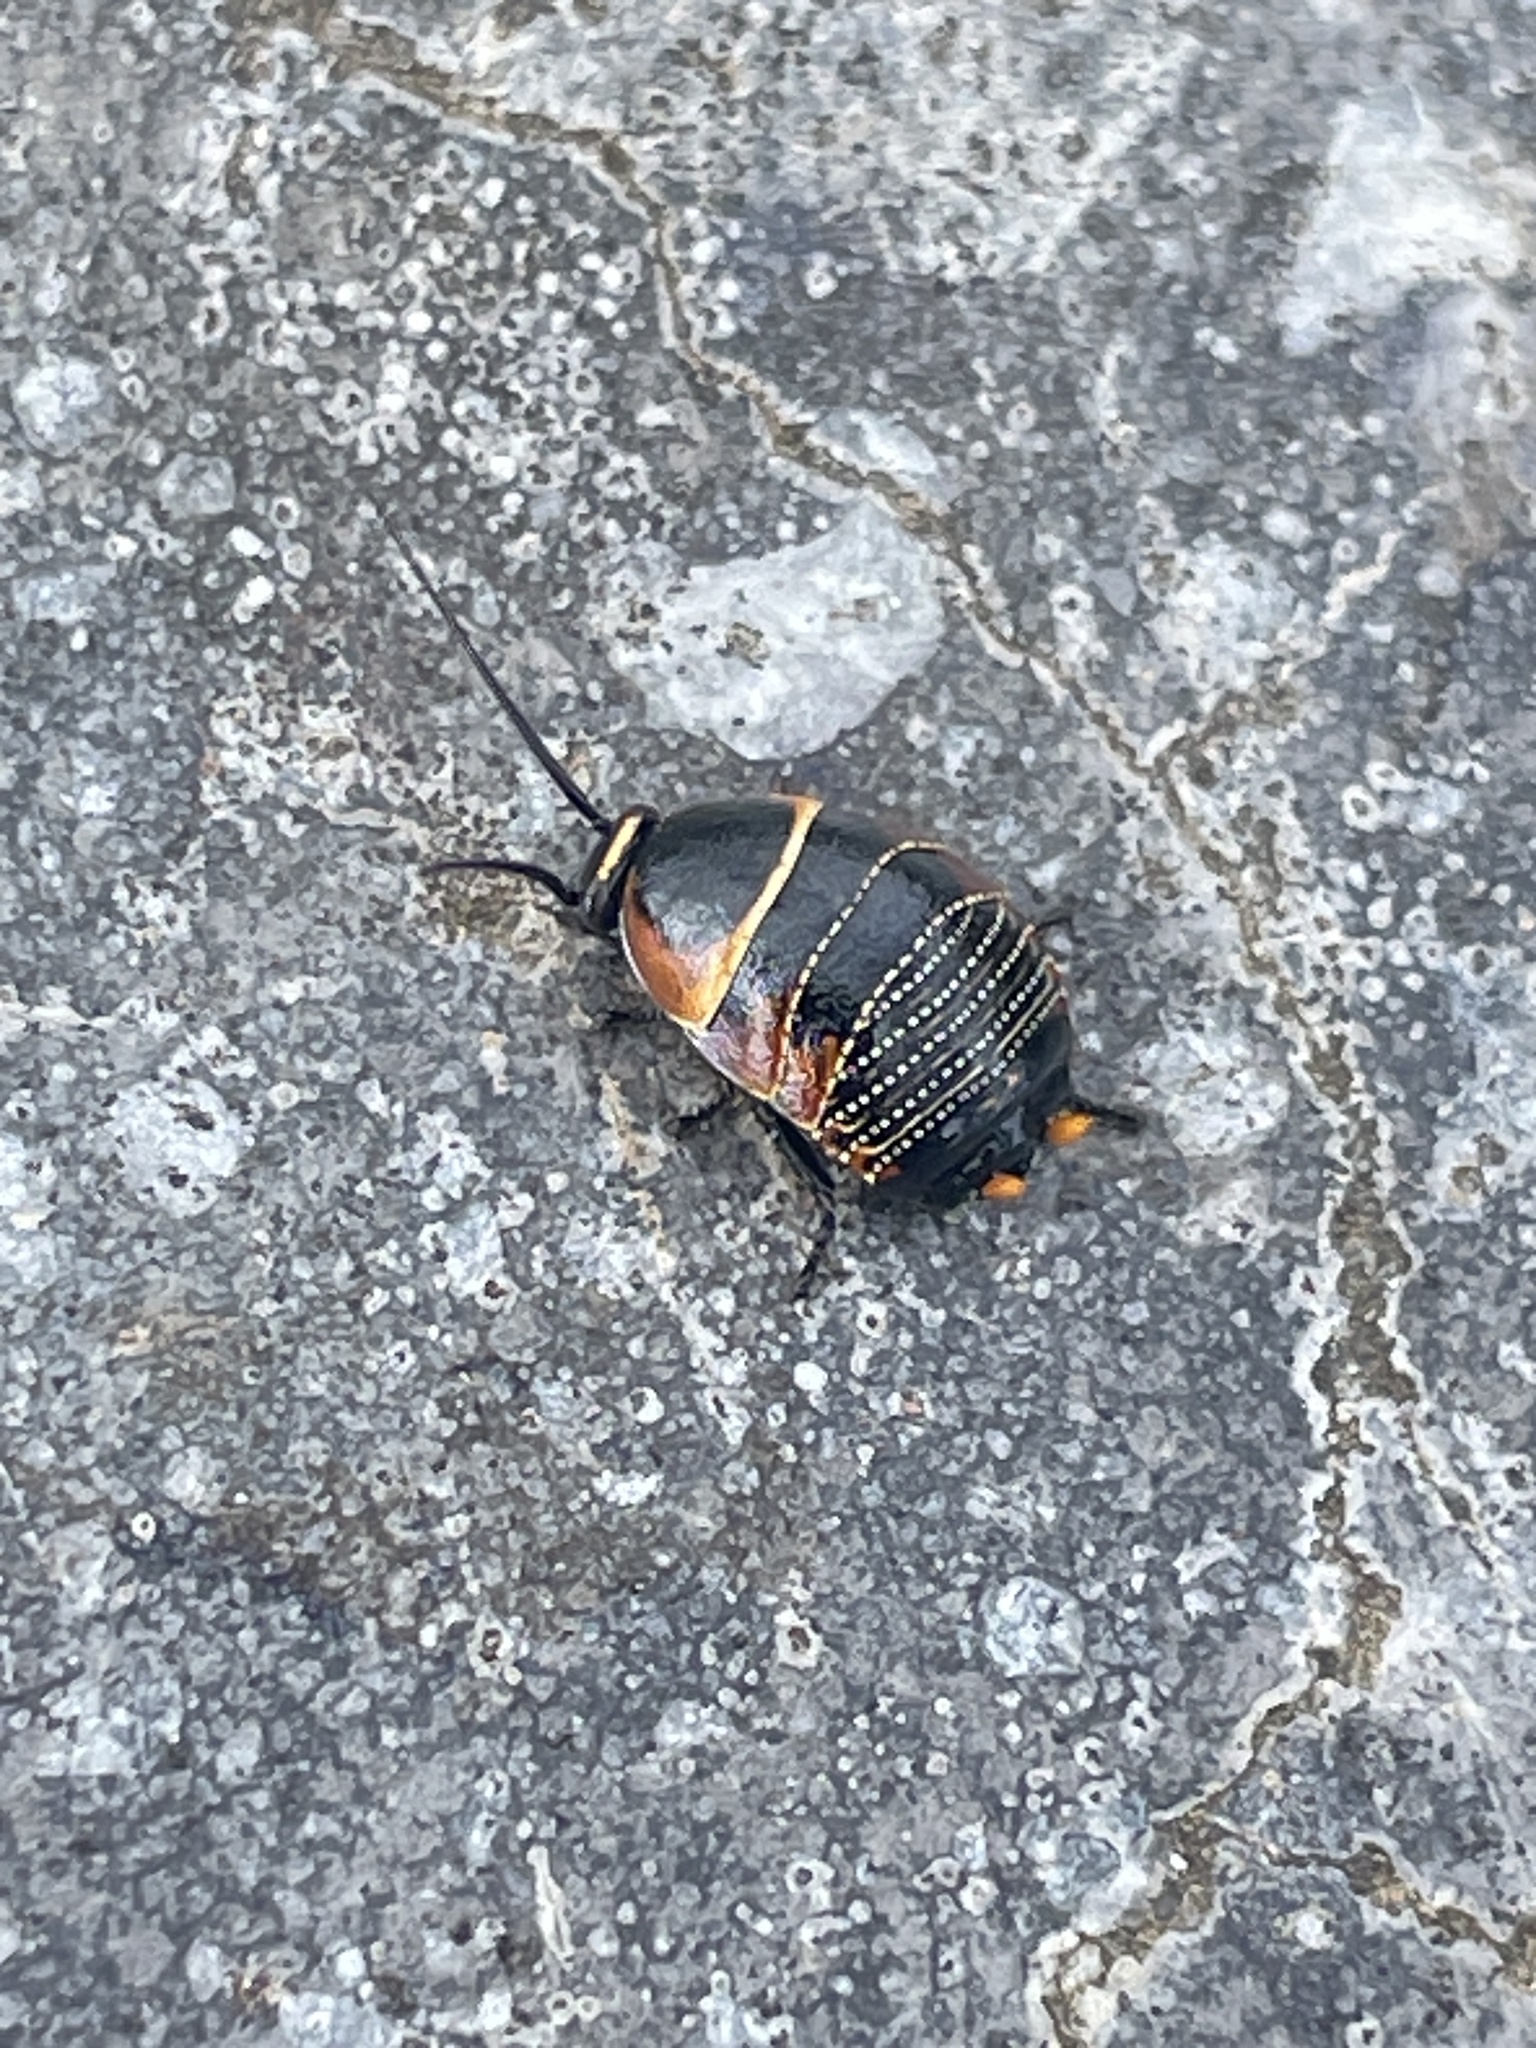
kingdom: Animalia
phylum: Arthropoda
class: Insecta
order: Blattodea
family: Ectobiidae
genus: Ellipsidion
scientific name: Ellipsidion australe
